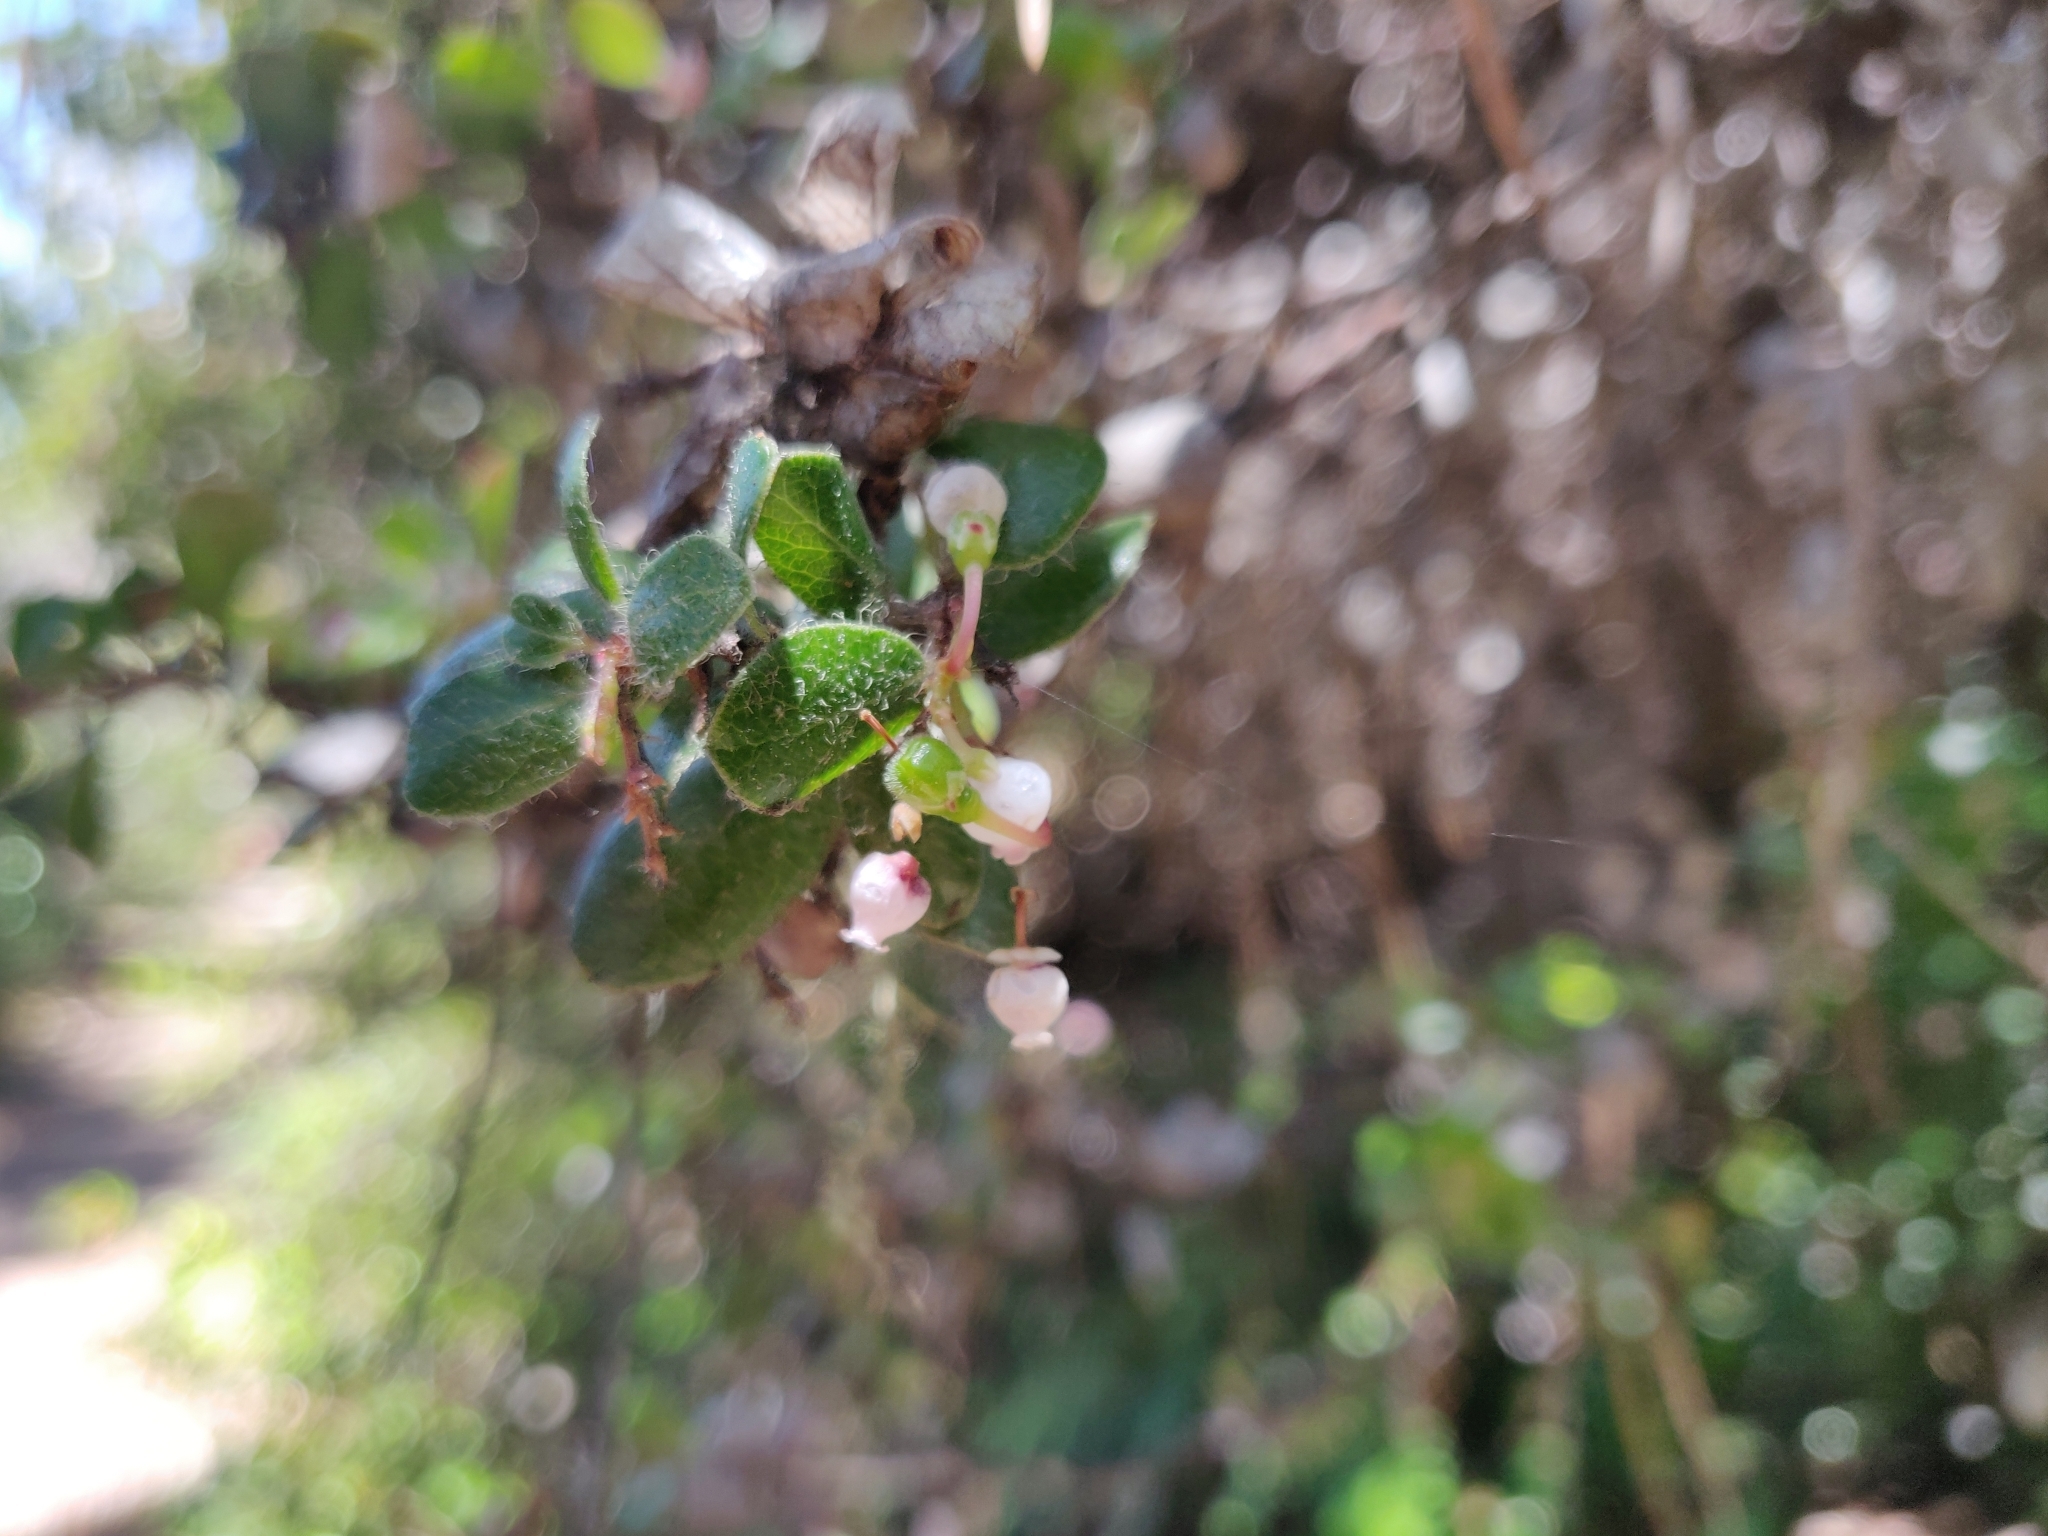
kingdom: Plantae
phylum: Tracheophyta
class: Magnoliopsida
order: Ericales
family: Ericaceae
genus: Arctostaphylos
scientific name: Arctostaphylos nummularia
